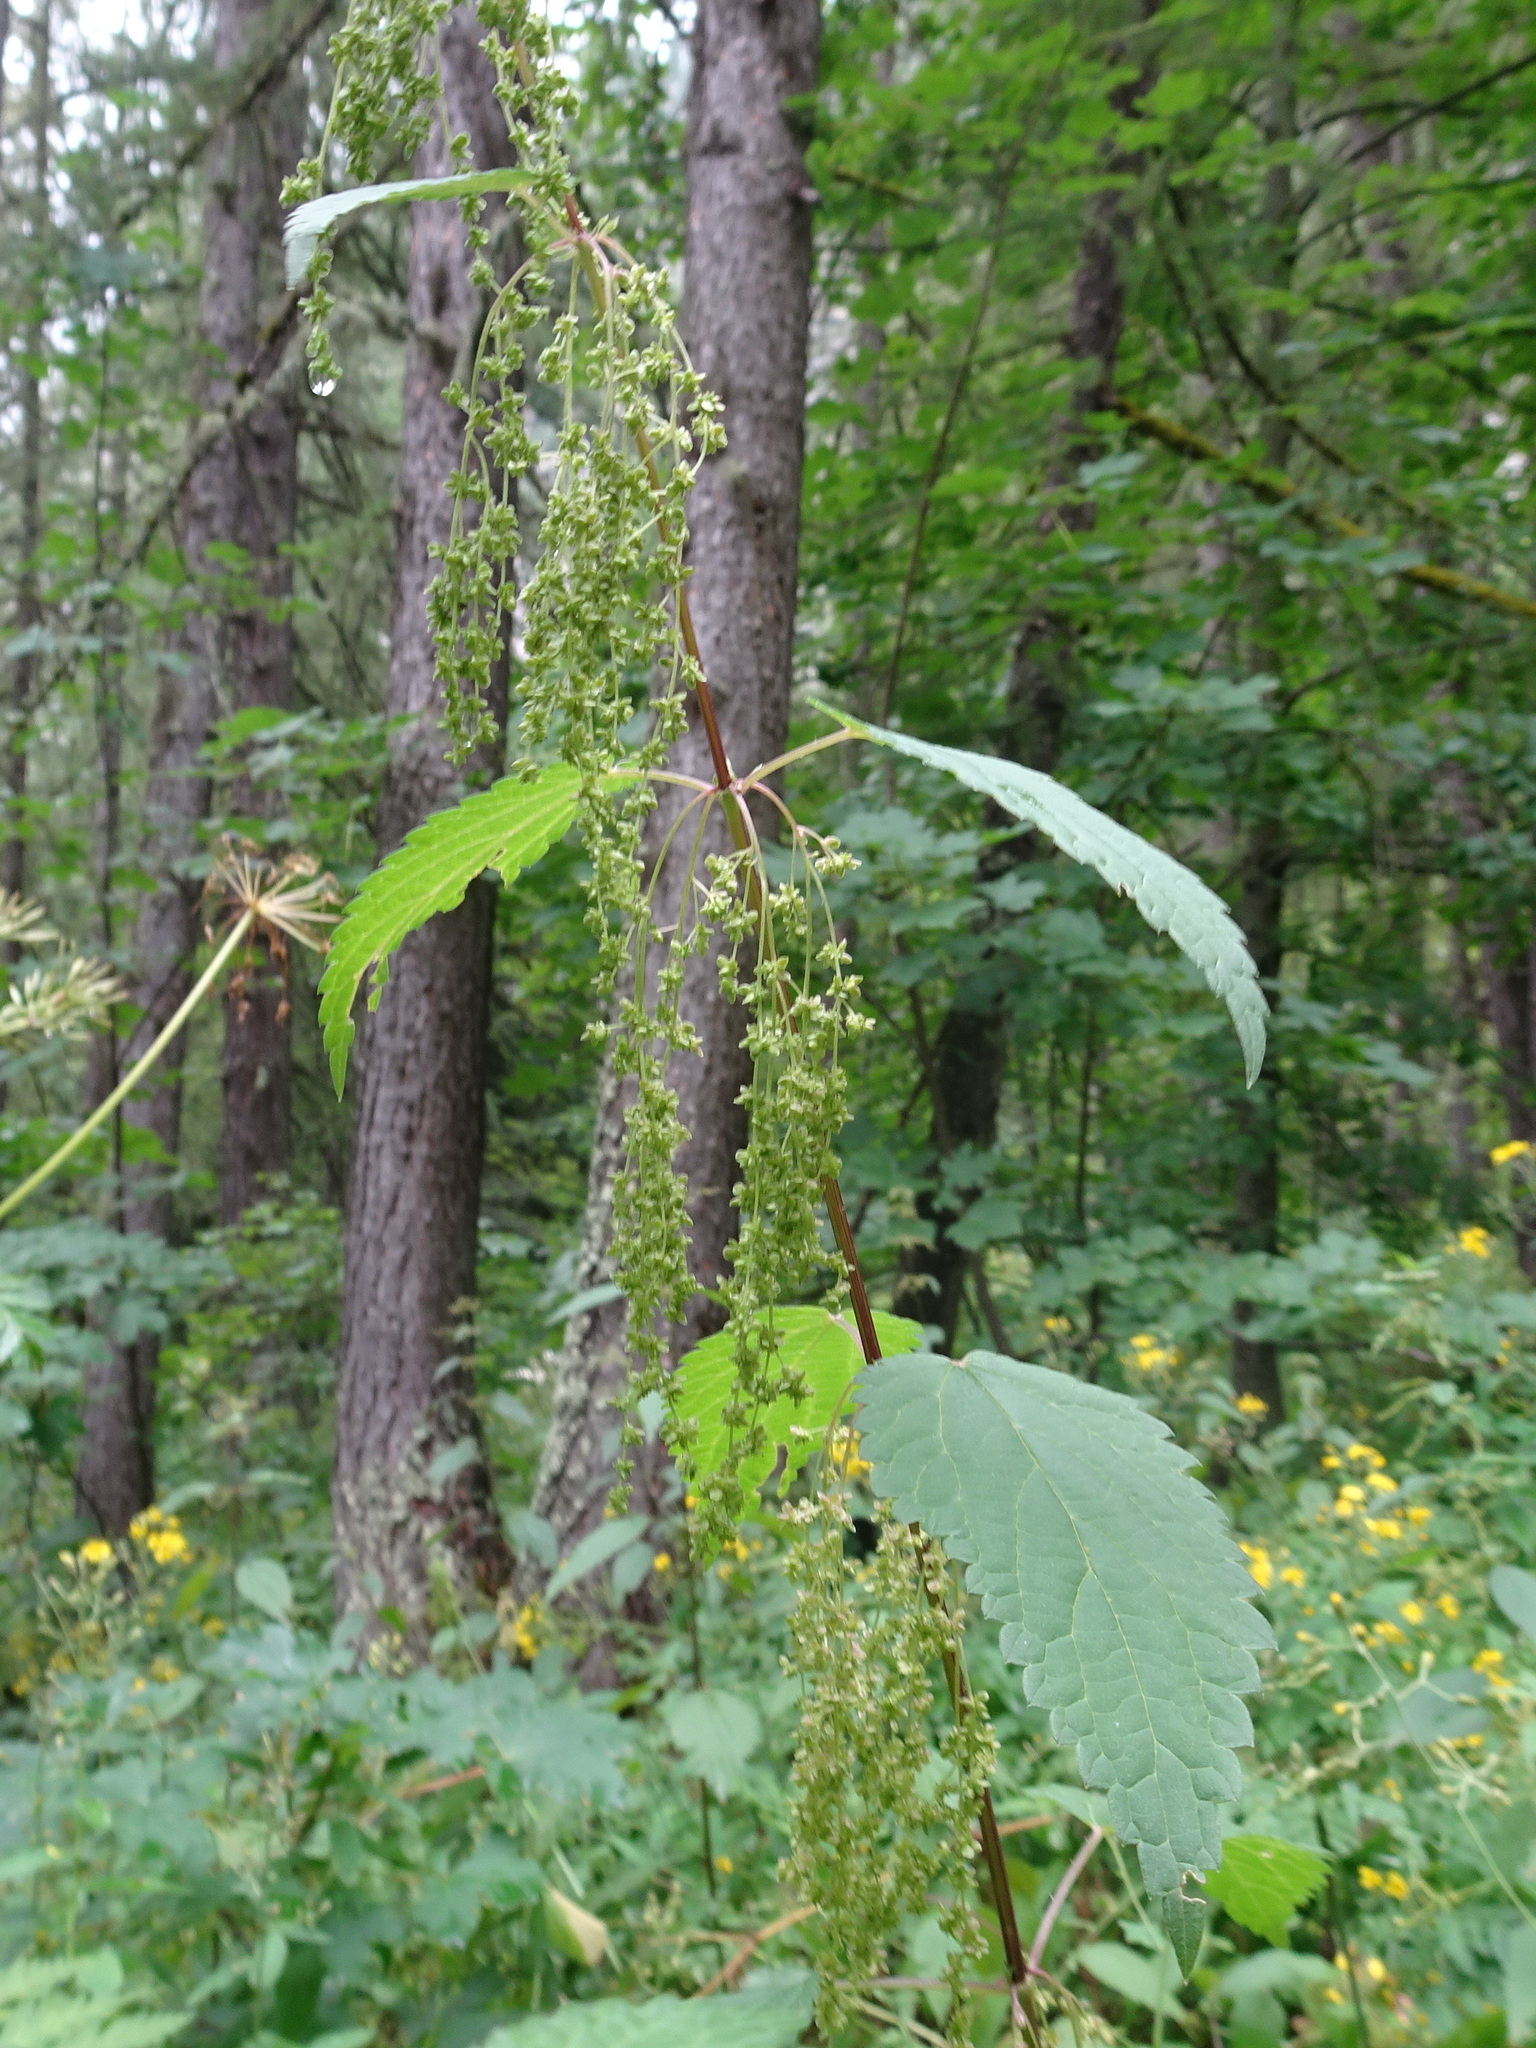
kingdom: Plantae
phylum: Tracheophyta
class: Magnoliopsida
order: Rosales
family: Urticaceae
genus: Urtica
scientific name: Urtica dioica
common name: Common nettle
